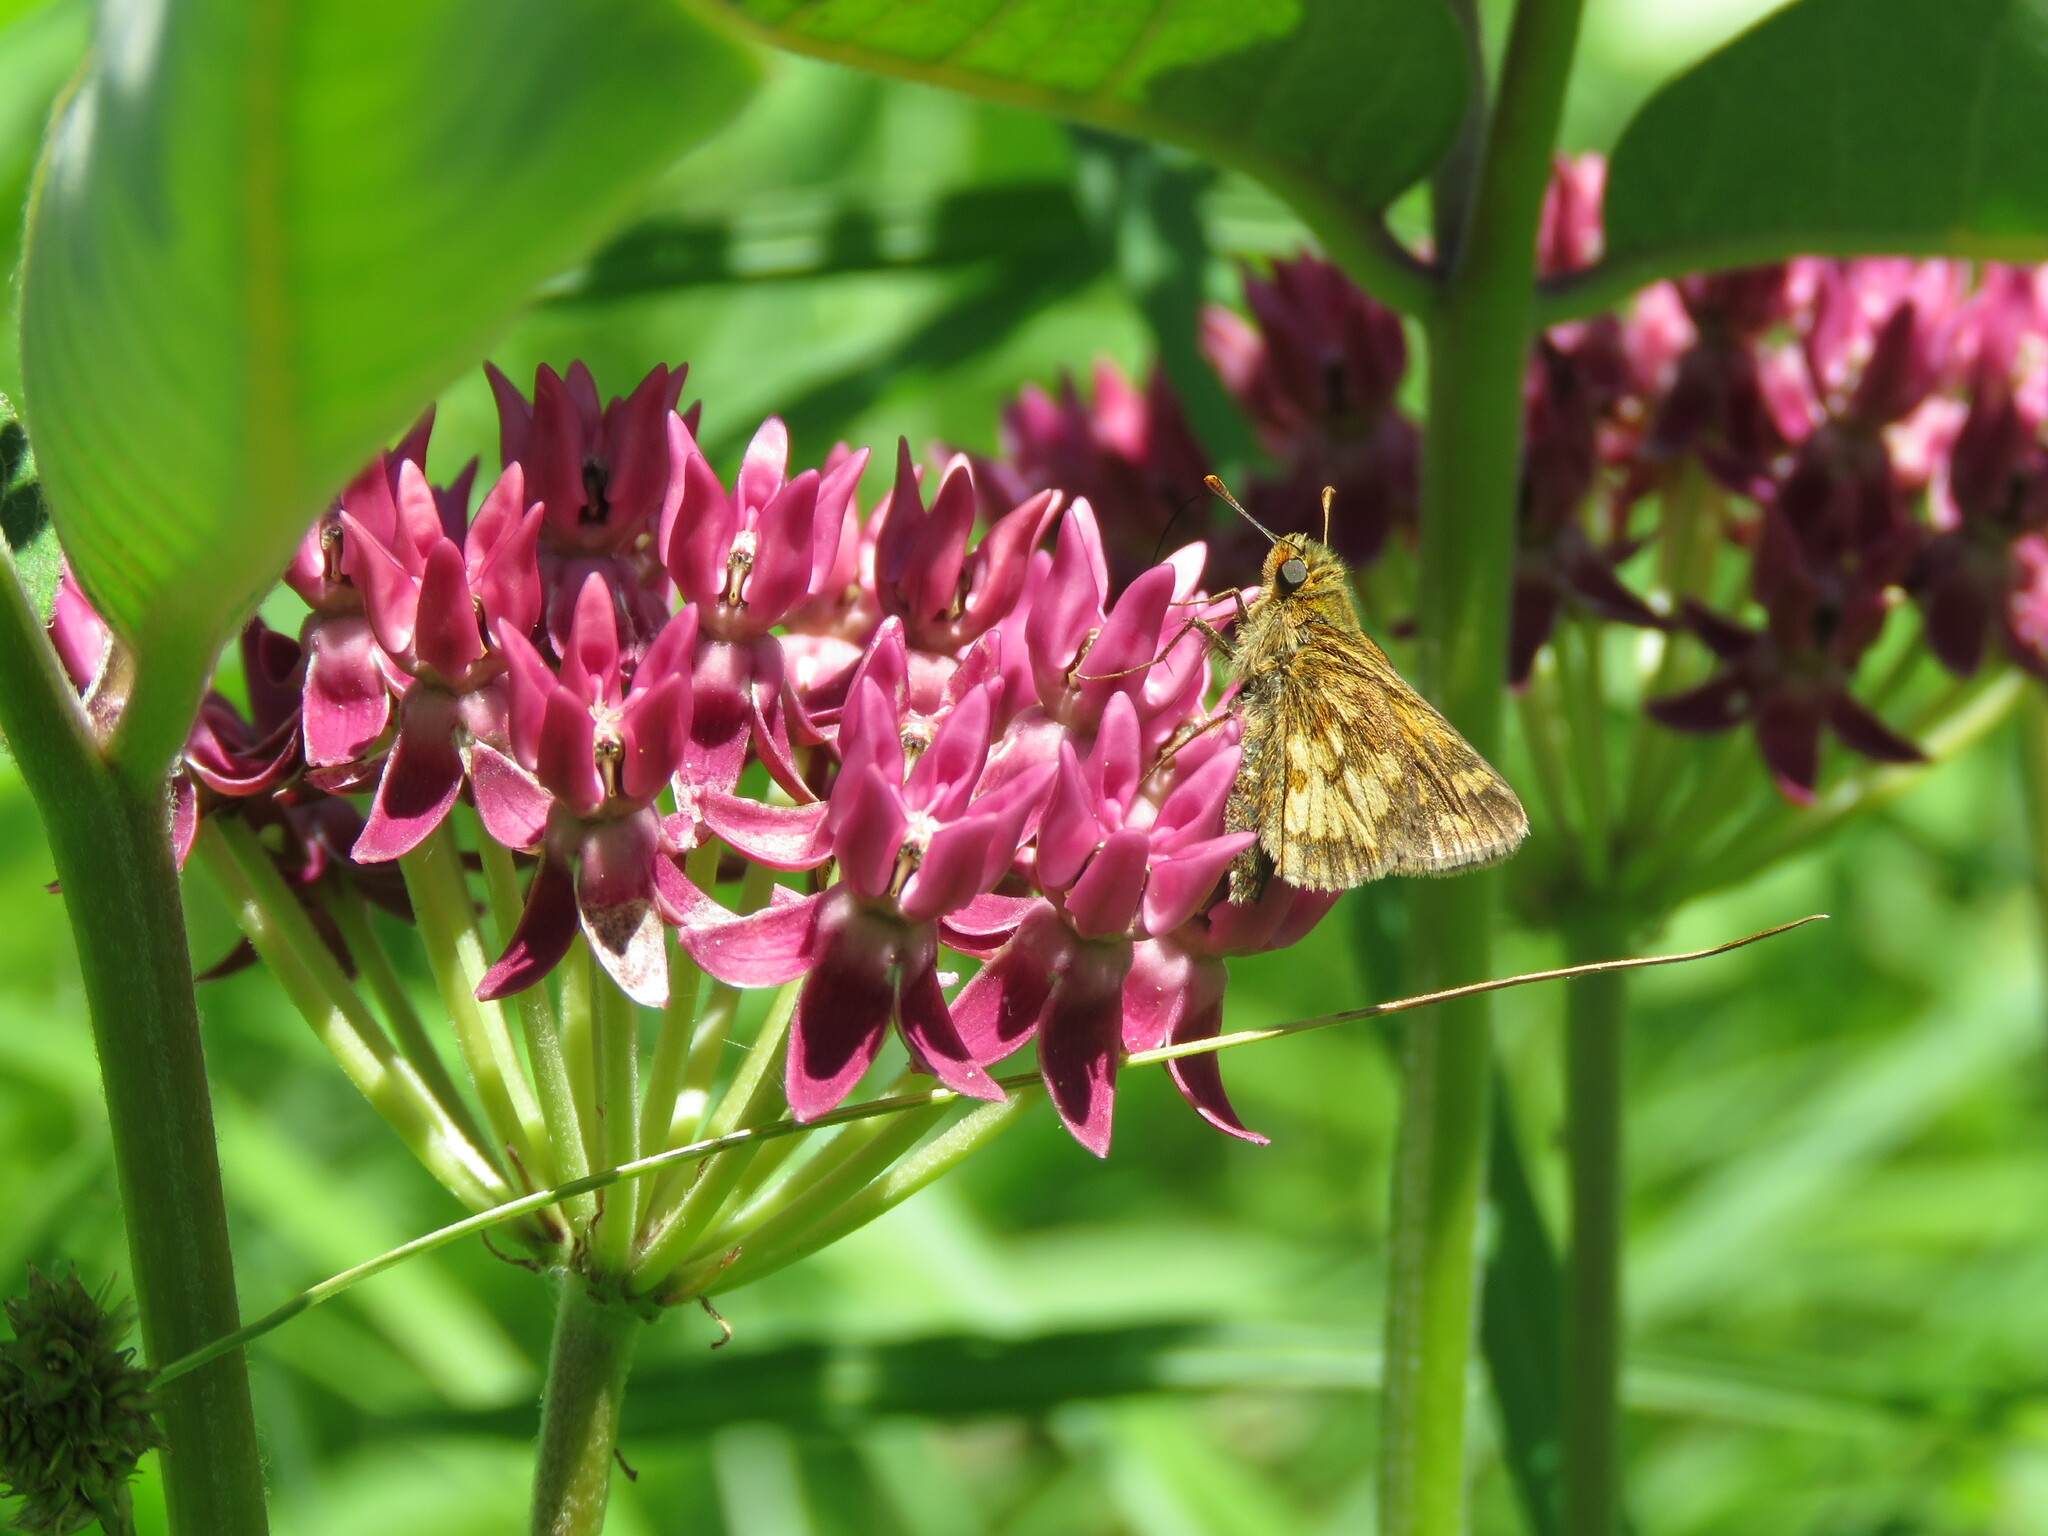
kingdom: Animalia
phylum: Arthropoda
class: Insecta
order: Lepidoptera
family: Hesperiidae
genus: Polites
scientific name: Polites coras
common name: Peck's skipper
